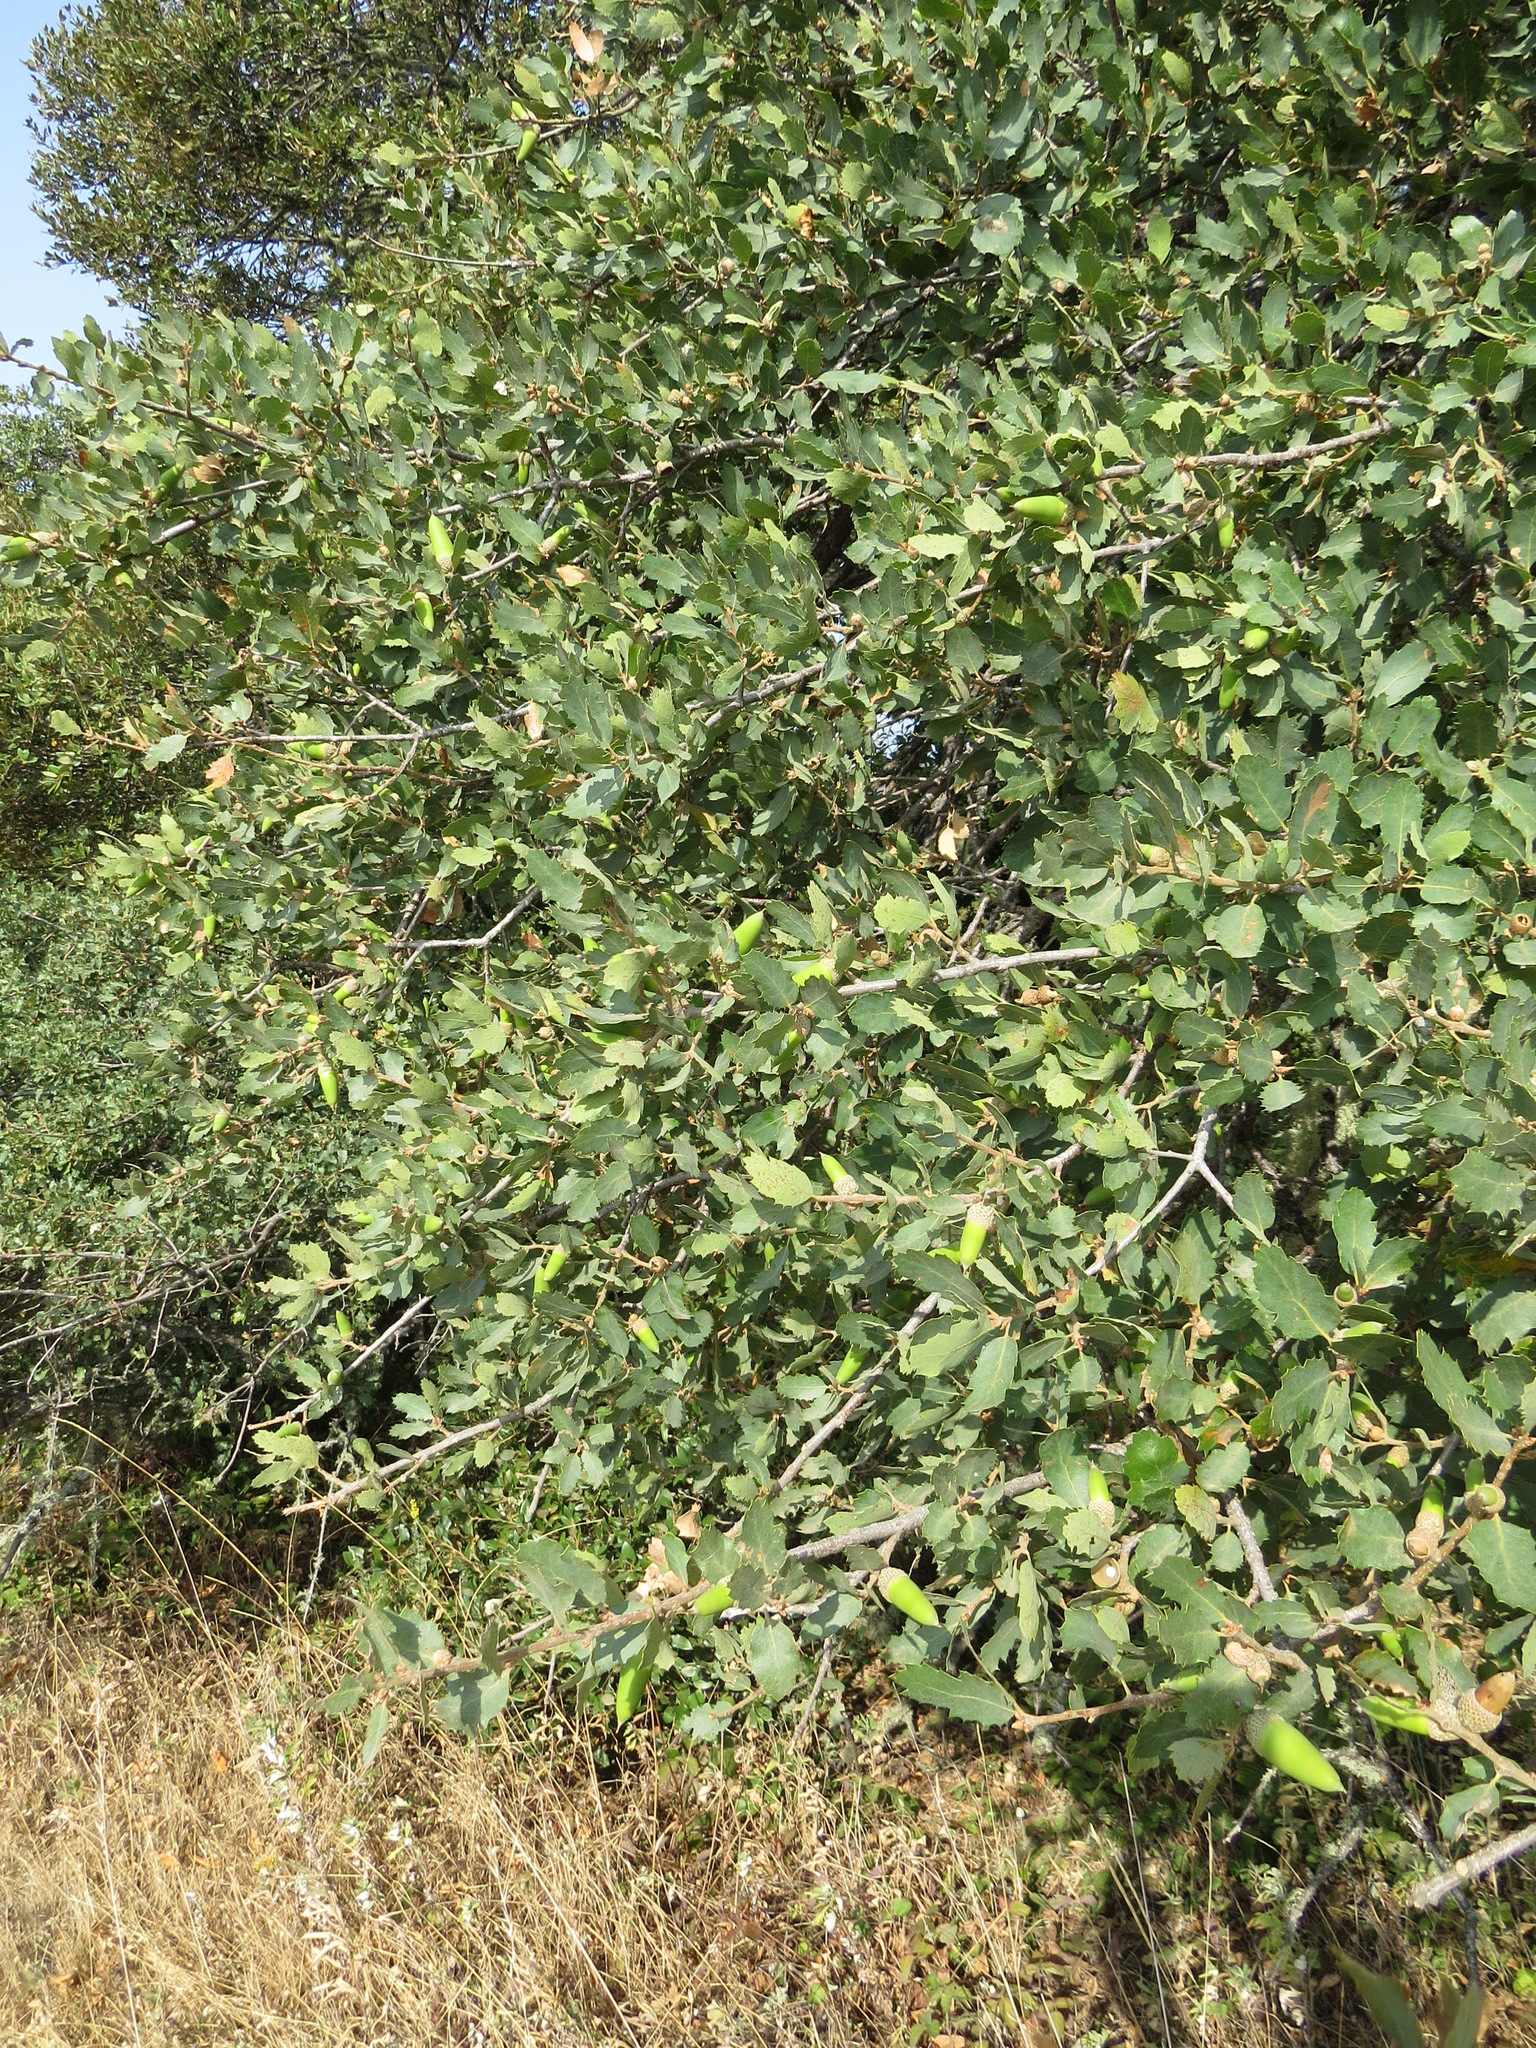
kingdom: Plantae
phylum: Tracheophyta
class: Magnoliopsida
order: Fagales
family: Fagaceae
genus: Quercus
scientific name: Quercus douglasii
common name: Blue oak
